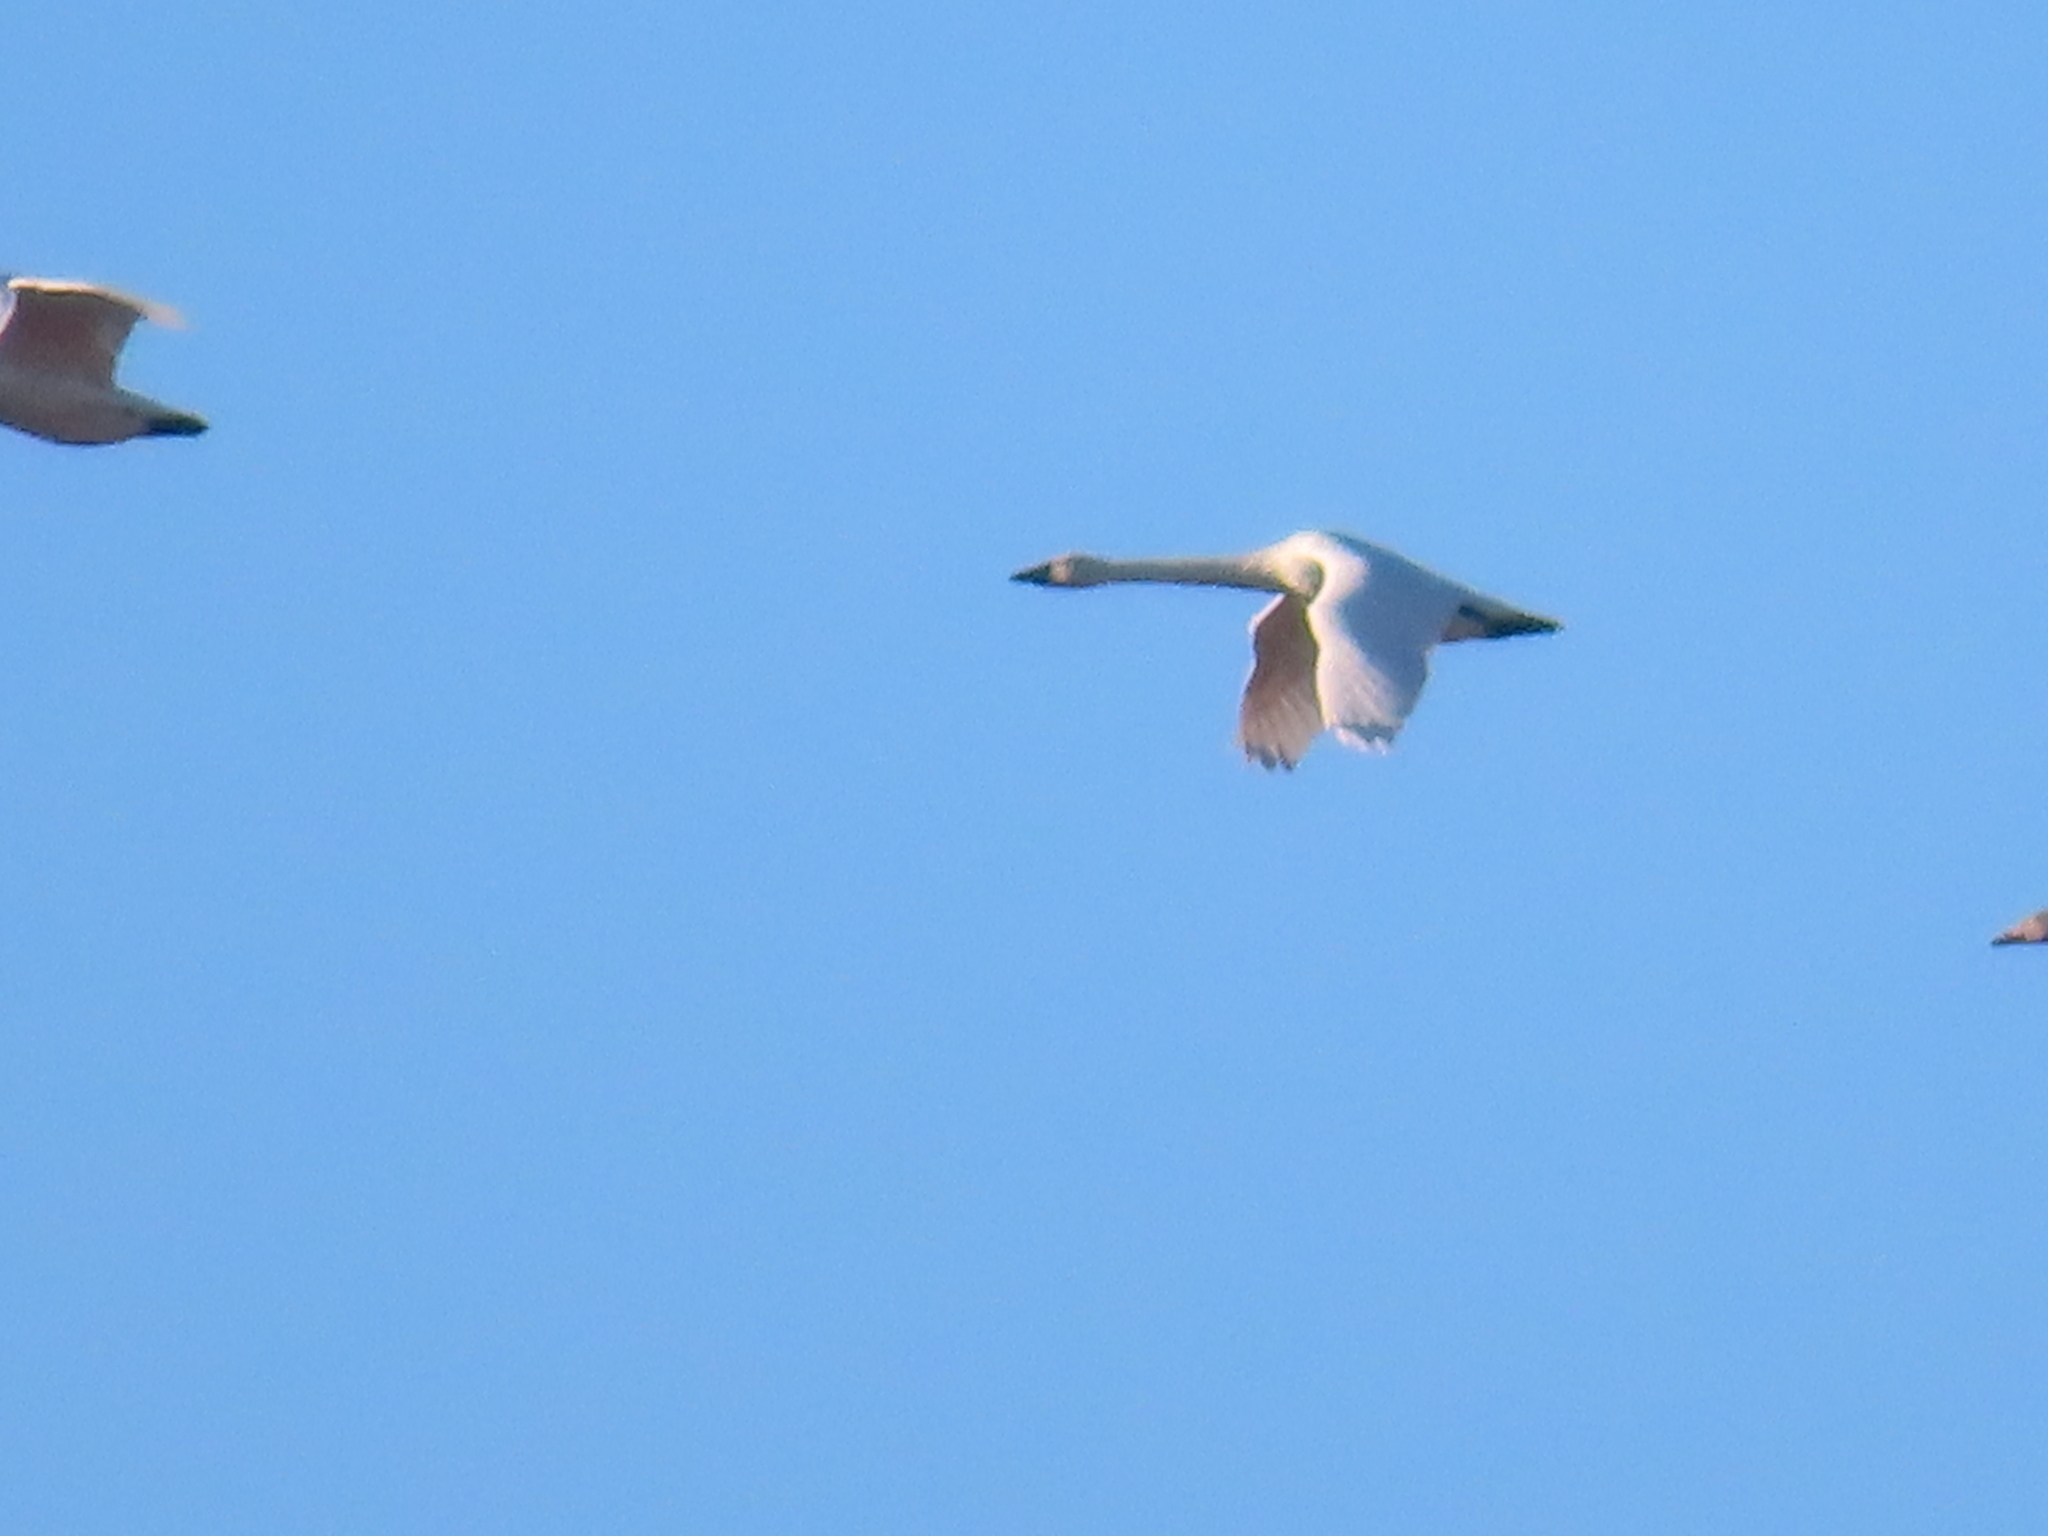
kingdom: Animalia
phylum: Chordata
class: Aves
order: Anseriformes
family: Anatidae
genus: Cygnus
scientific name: Cygnus columbianus
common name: Tundra swan
